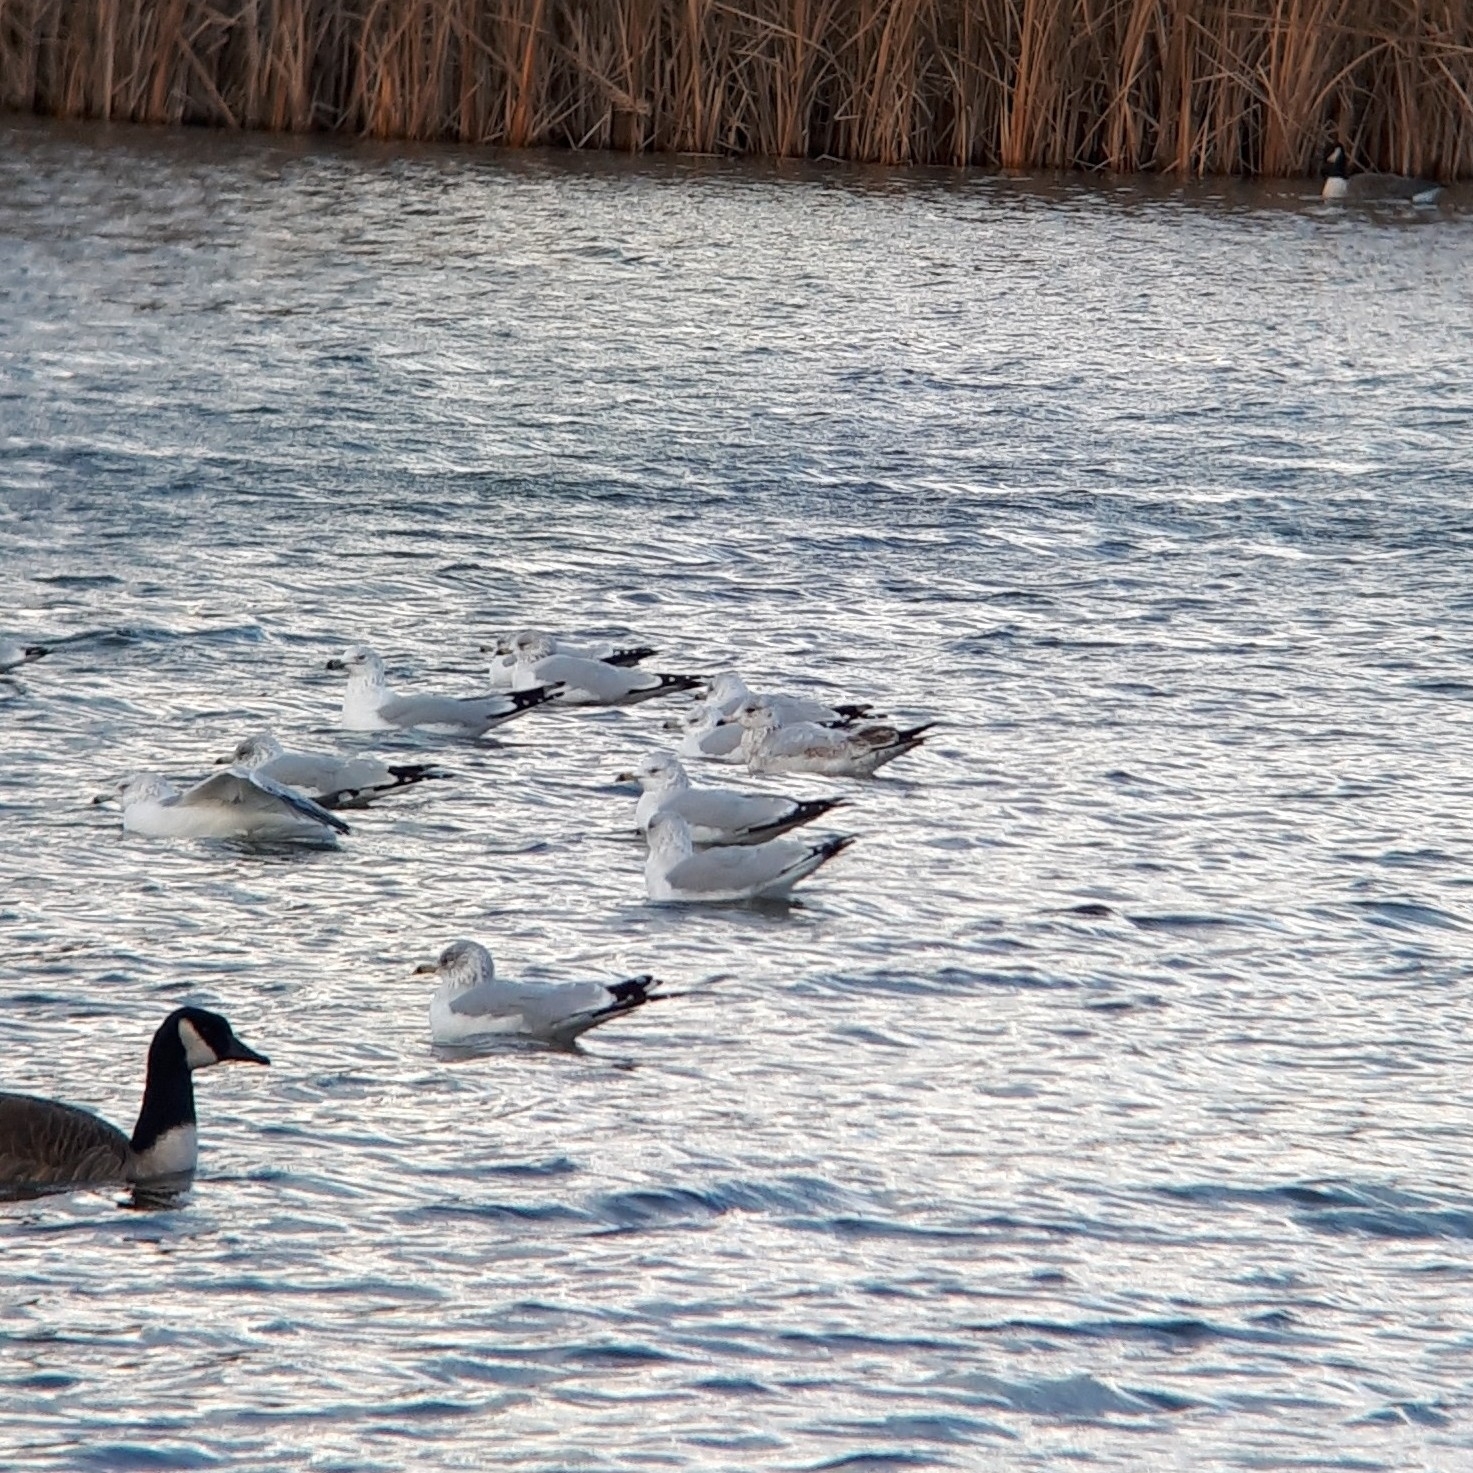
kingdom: Animalia
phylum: Chordata
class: Aves
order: Charadriiformes
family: Laridae
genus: Larus
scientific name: Larus delawarensis
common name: Ring-billed gull
